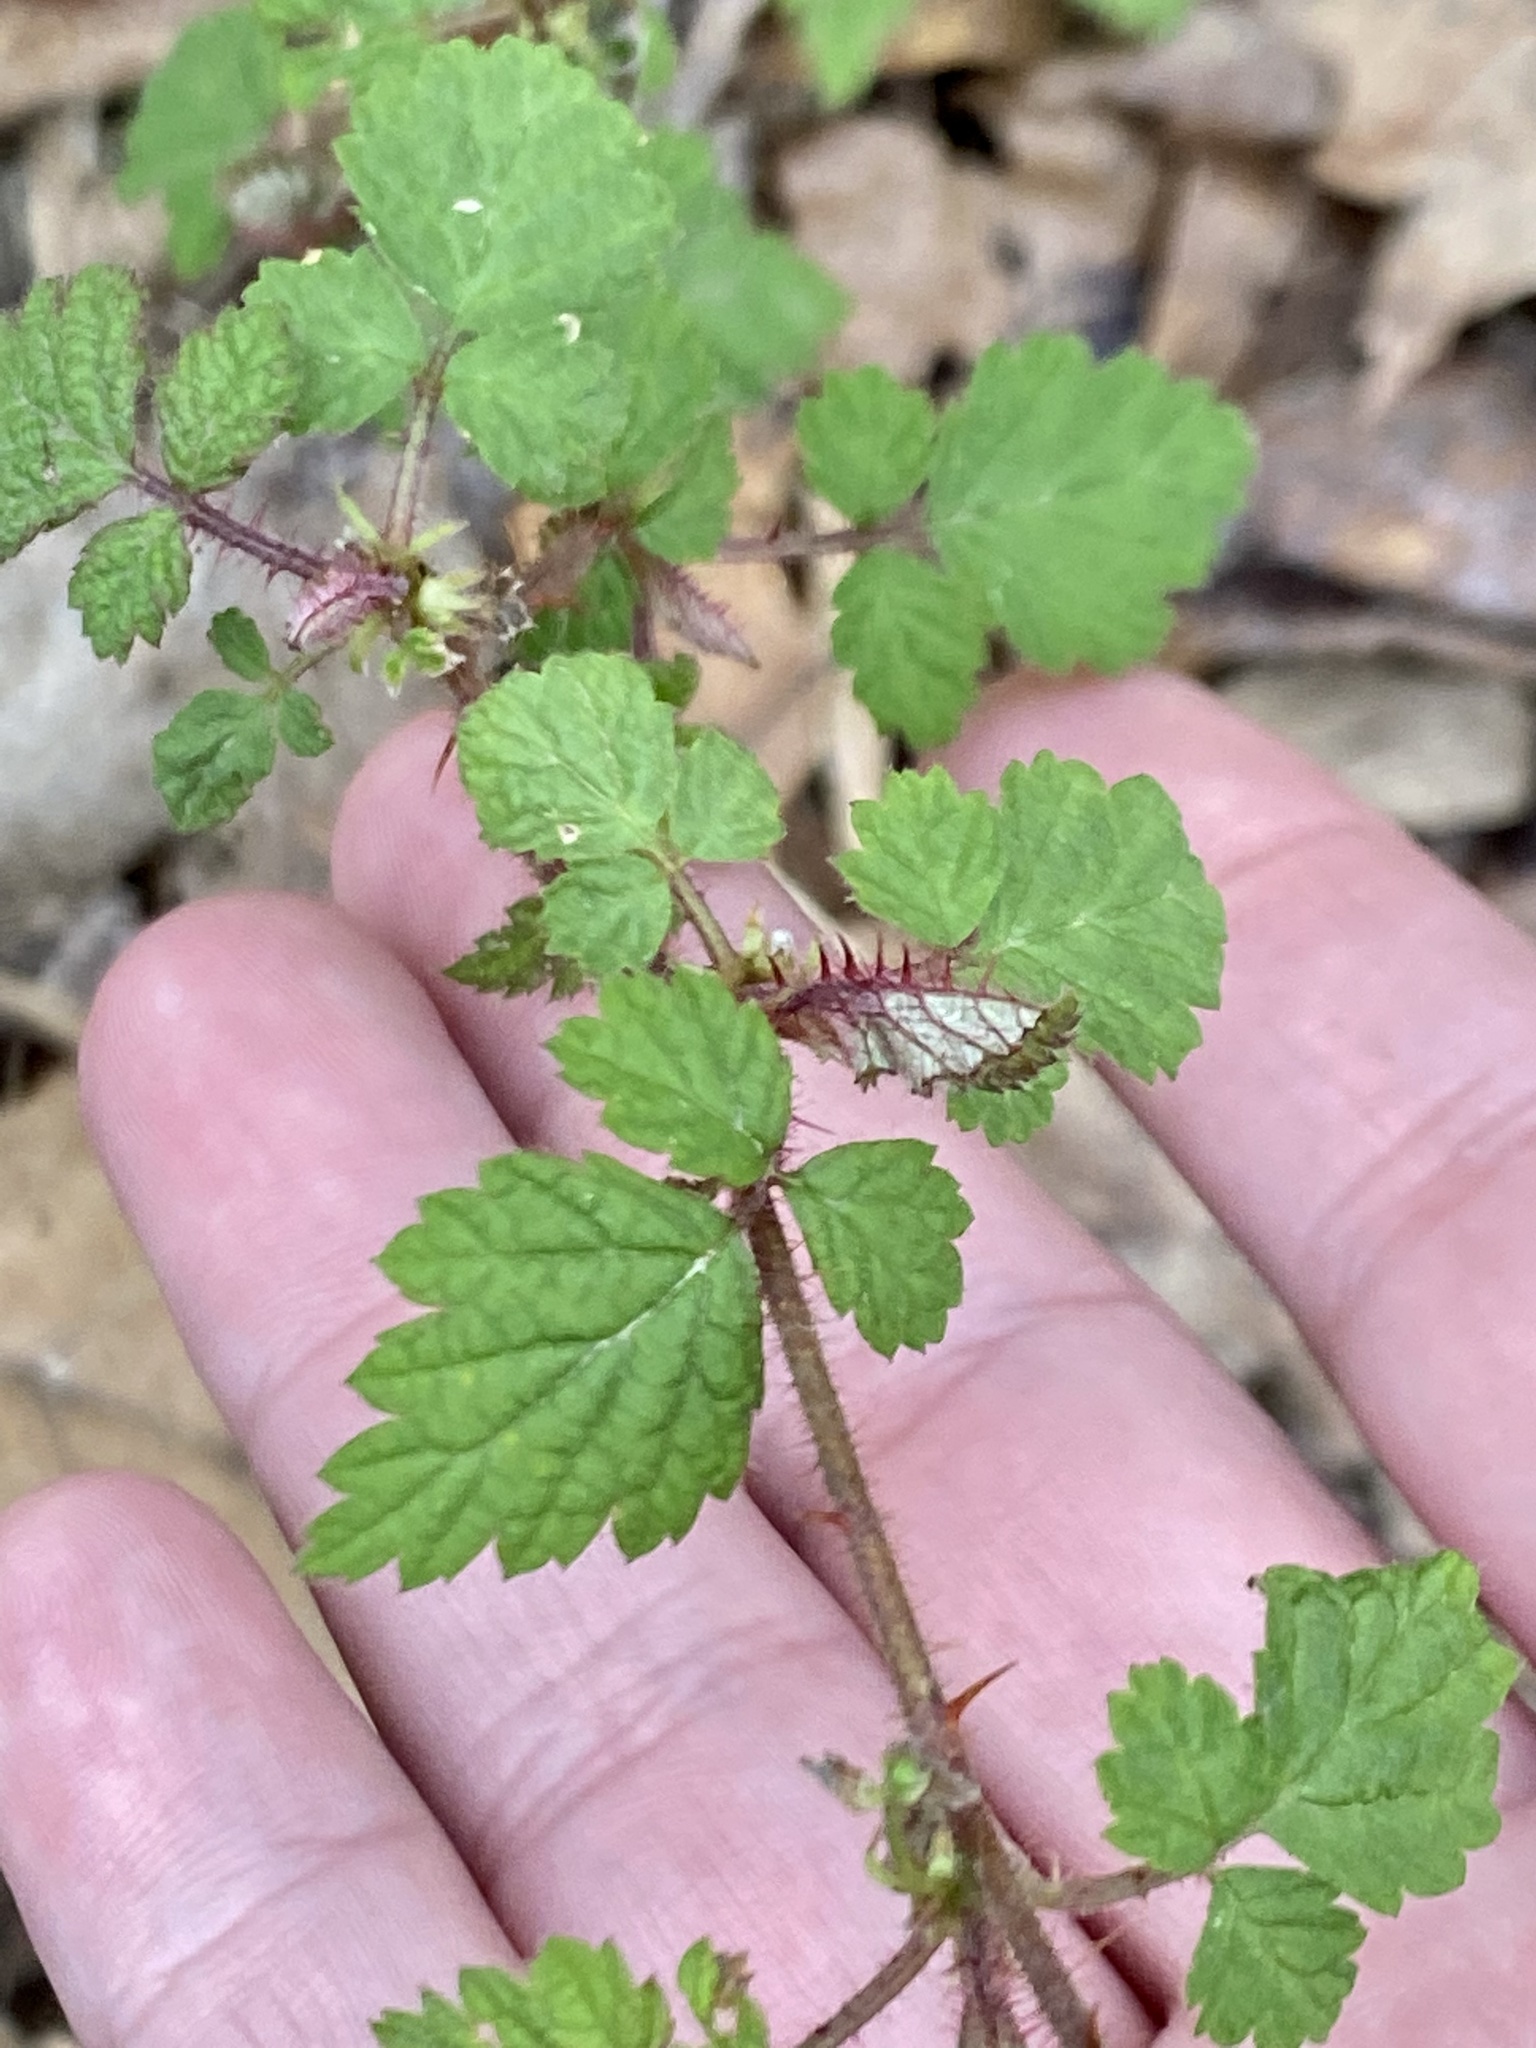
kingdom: Plantae
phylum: Tracheophyta
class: Magnoliopsida
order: Rosales
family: Rosaceae
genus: Rubus
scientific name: Rubus phoenicolasius
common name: Japanese wineberry
